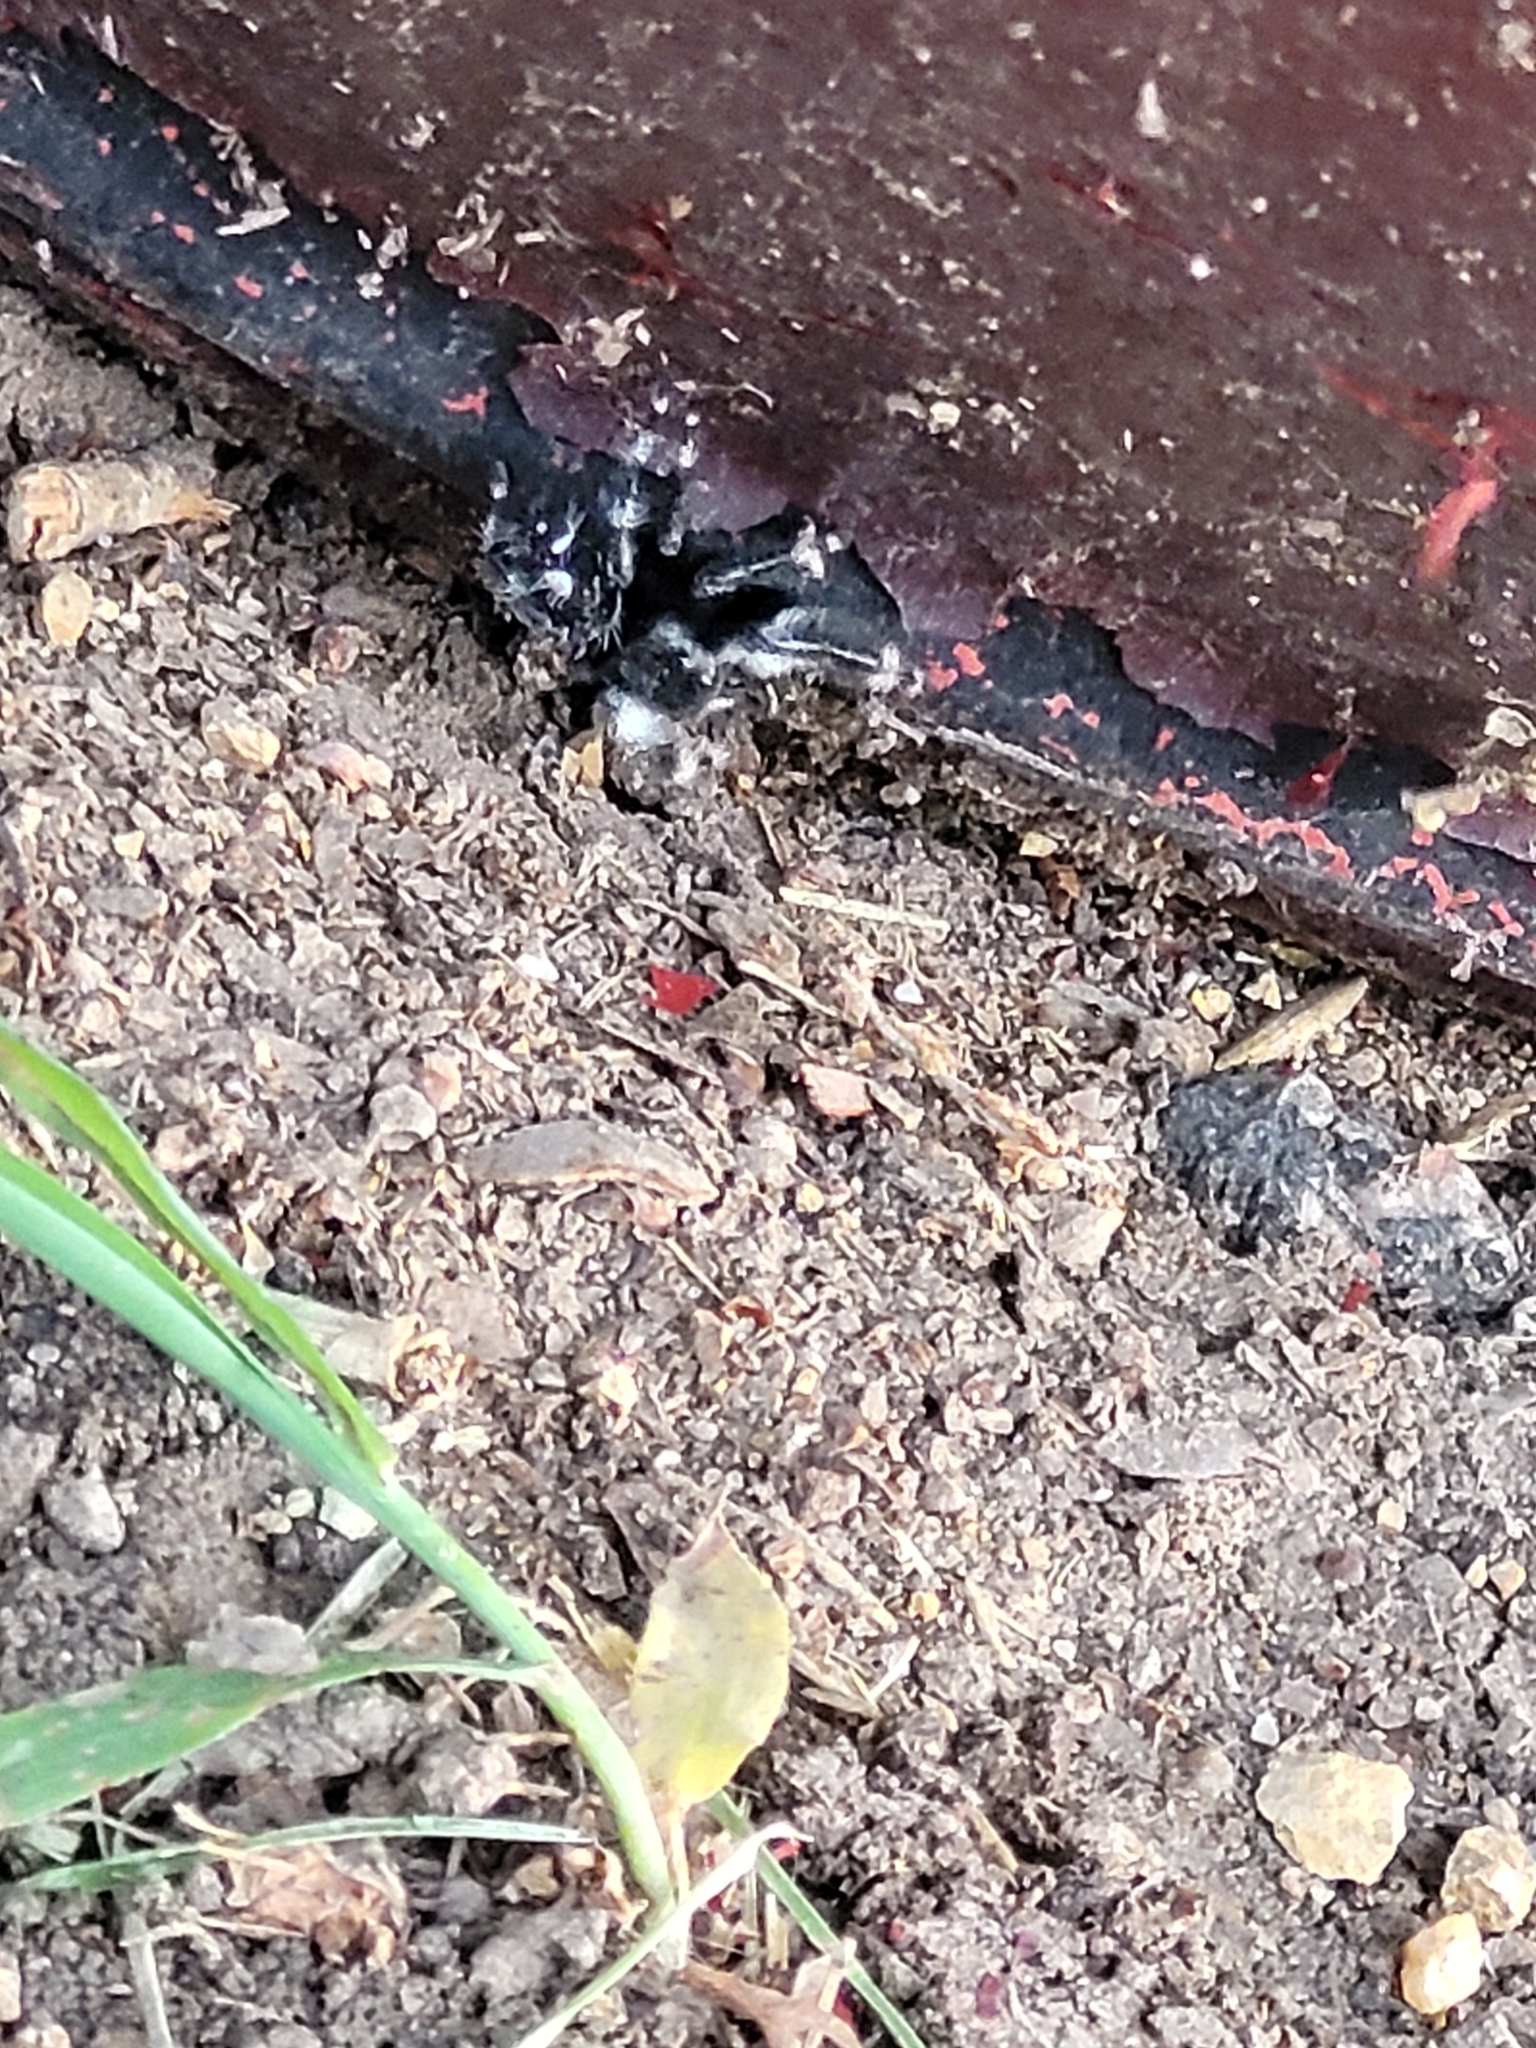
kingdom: Animalia
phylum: Arthropoda
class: Arachnida
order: Araneae
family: Salticidae
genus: Phidippus
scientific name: Phidippus audax
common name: Bold jumper
